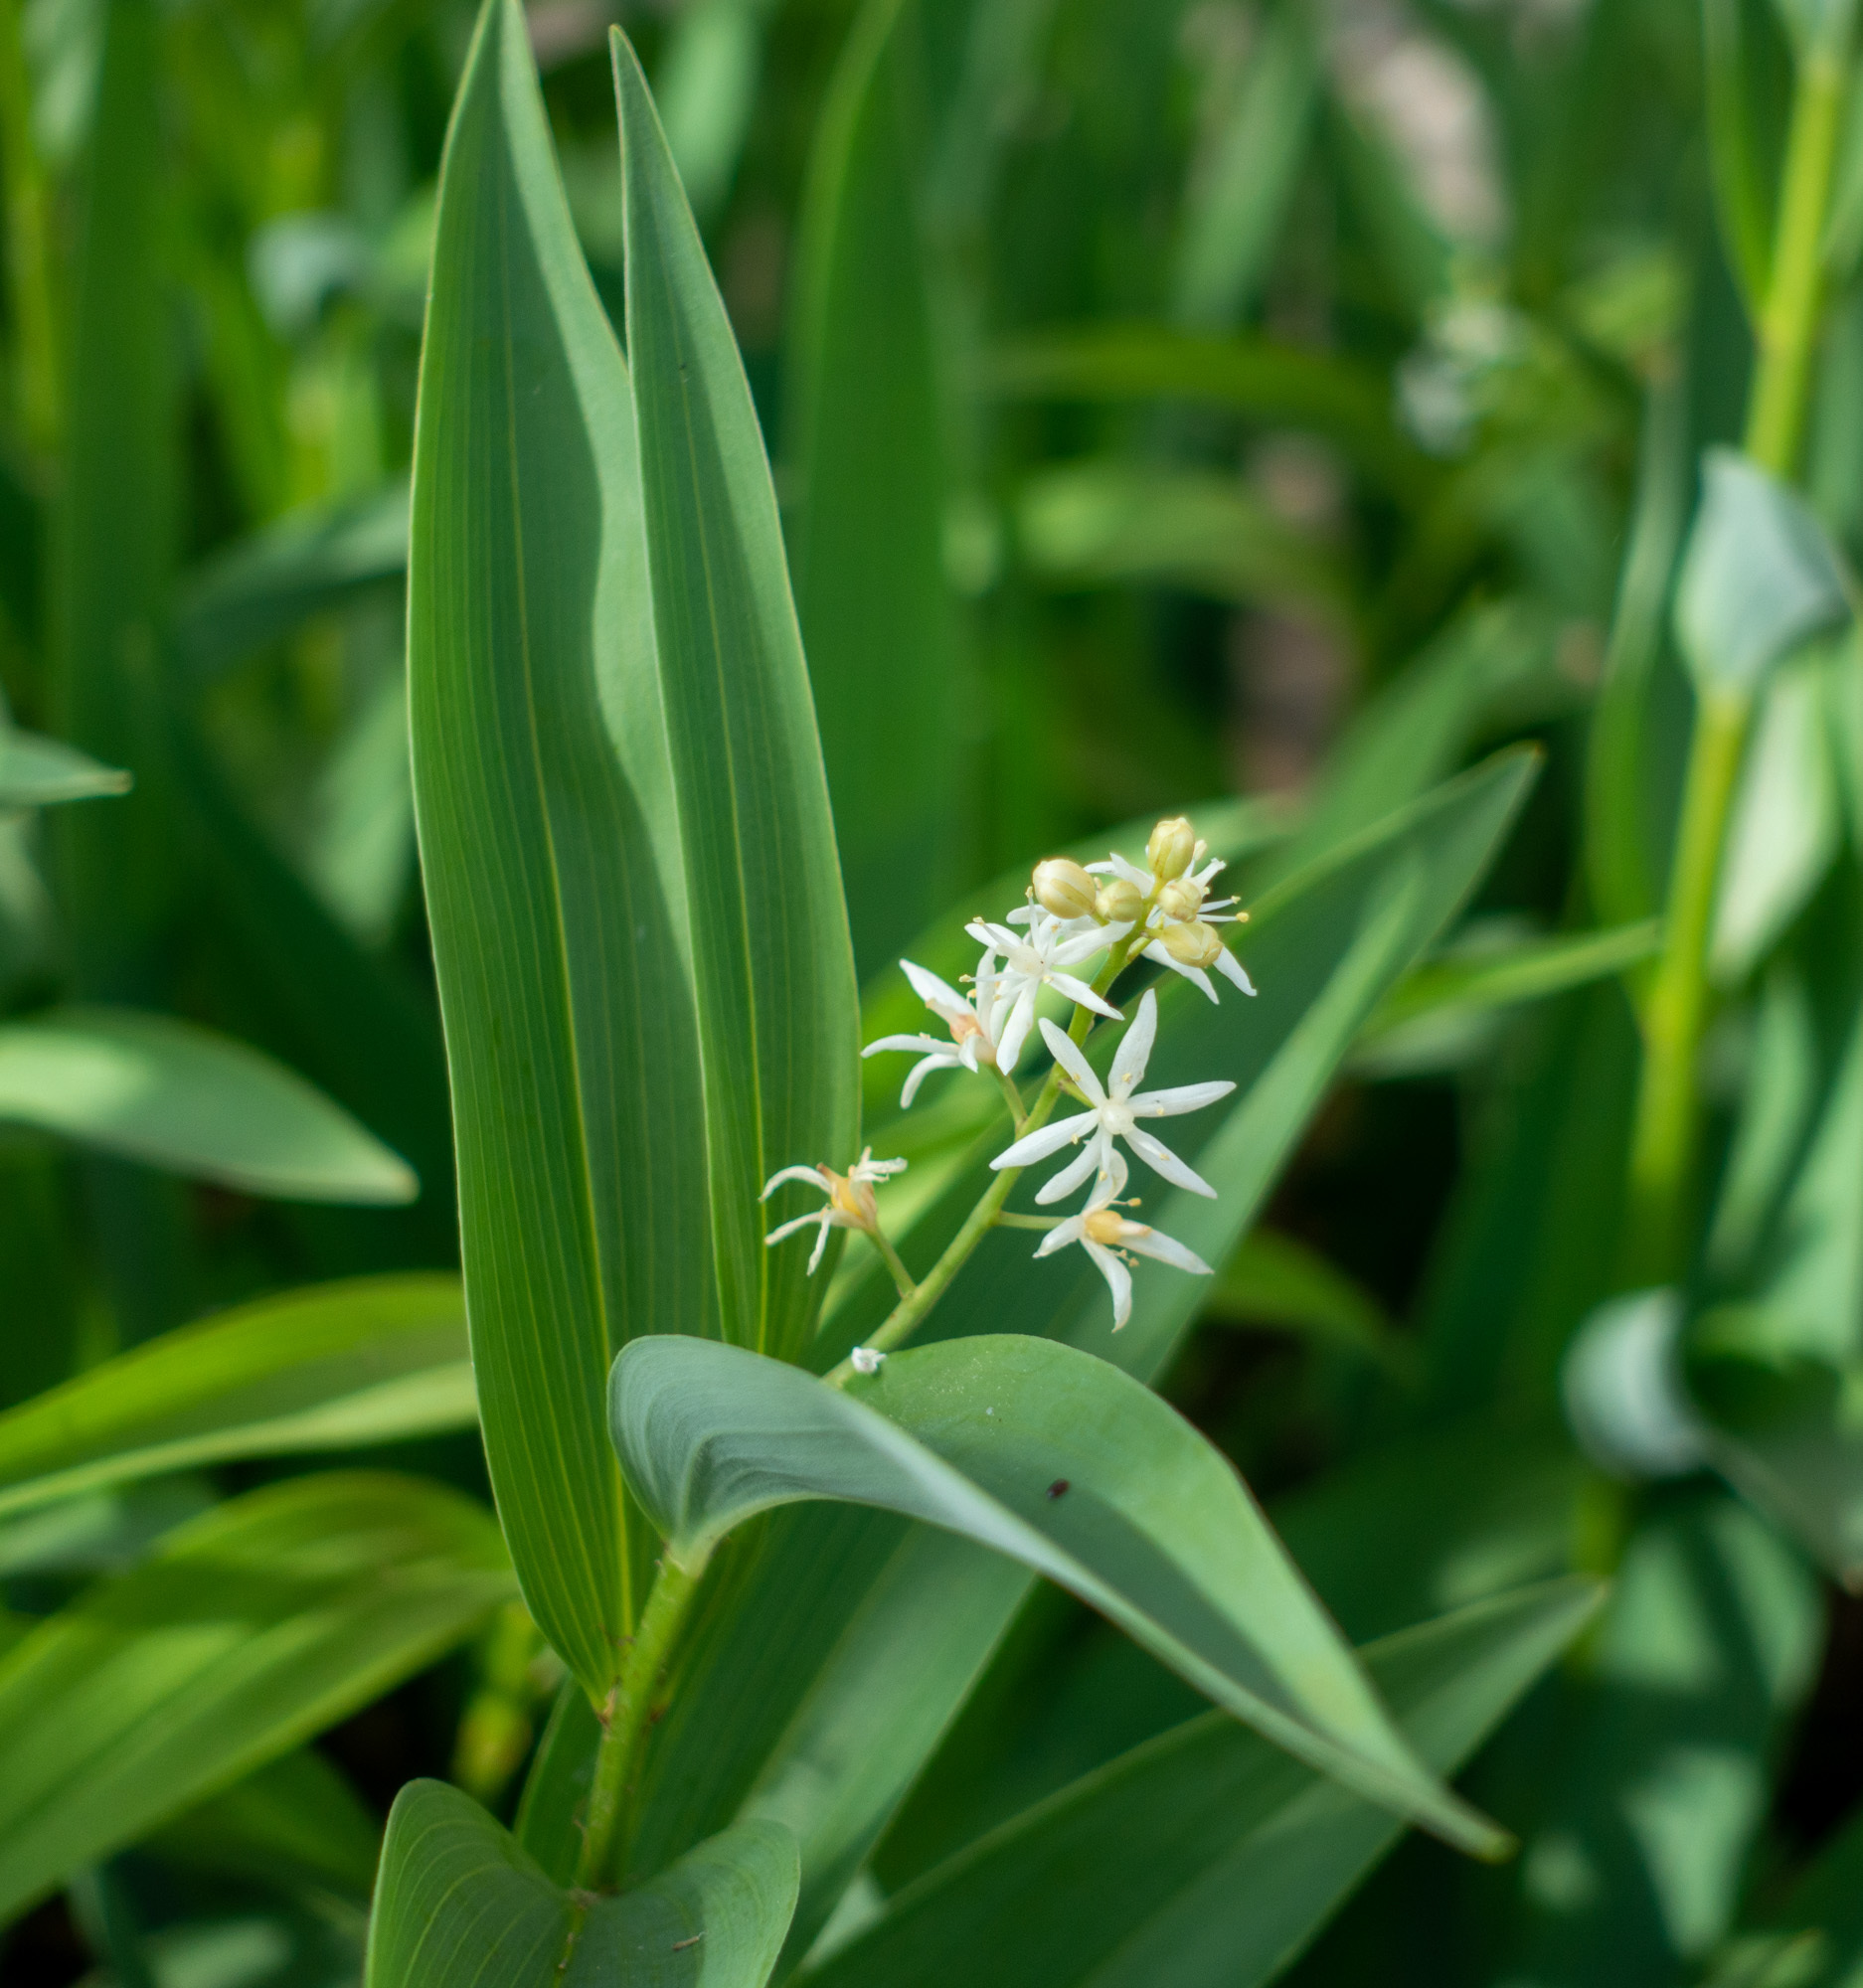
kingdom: Plantae
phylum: Tracheophyta
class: Liliopsida
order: Asparagales
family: Asparagaceae
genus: Maianthemum
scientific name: Maianthemum stellatum
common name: Little false solomon's seal
